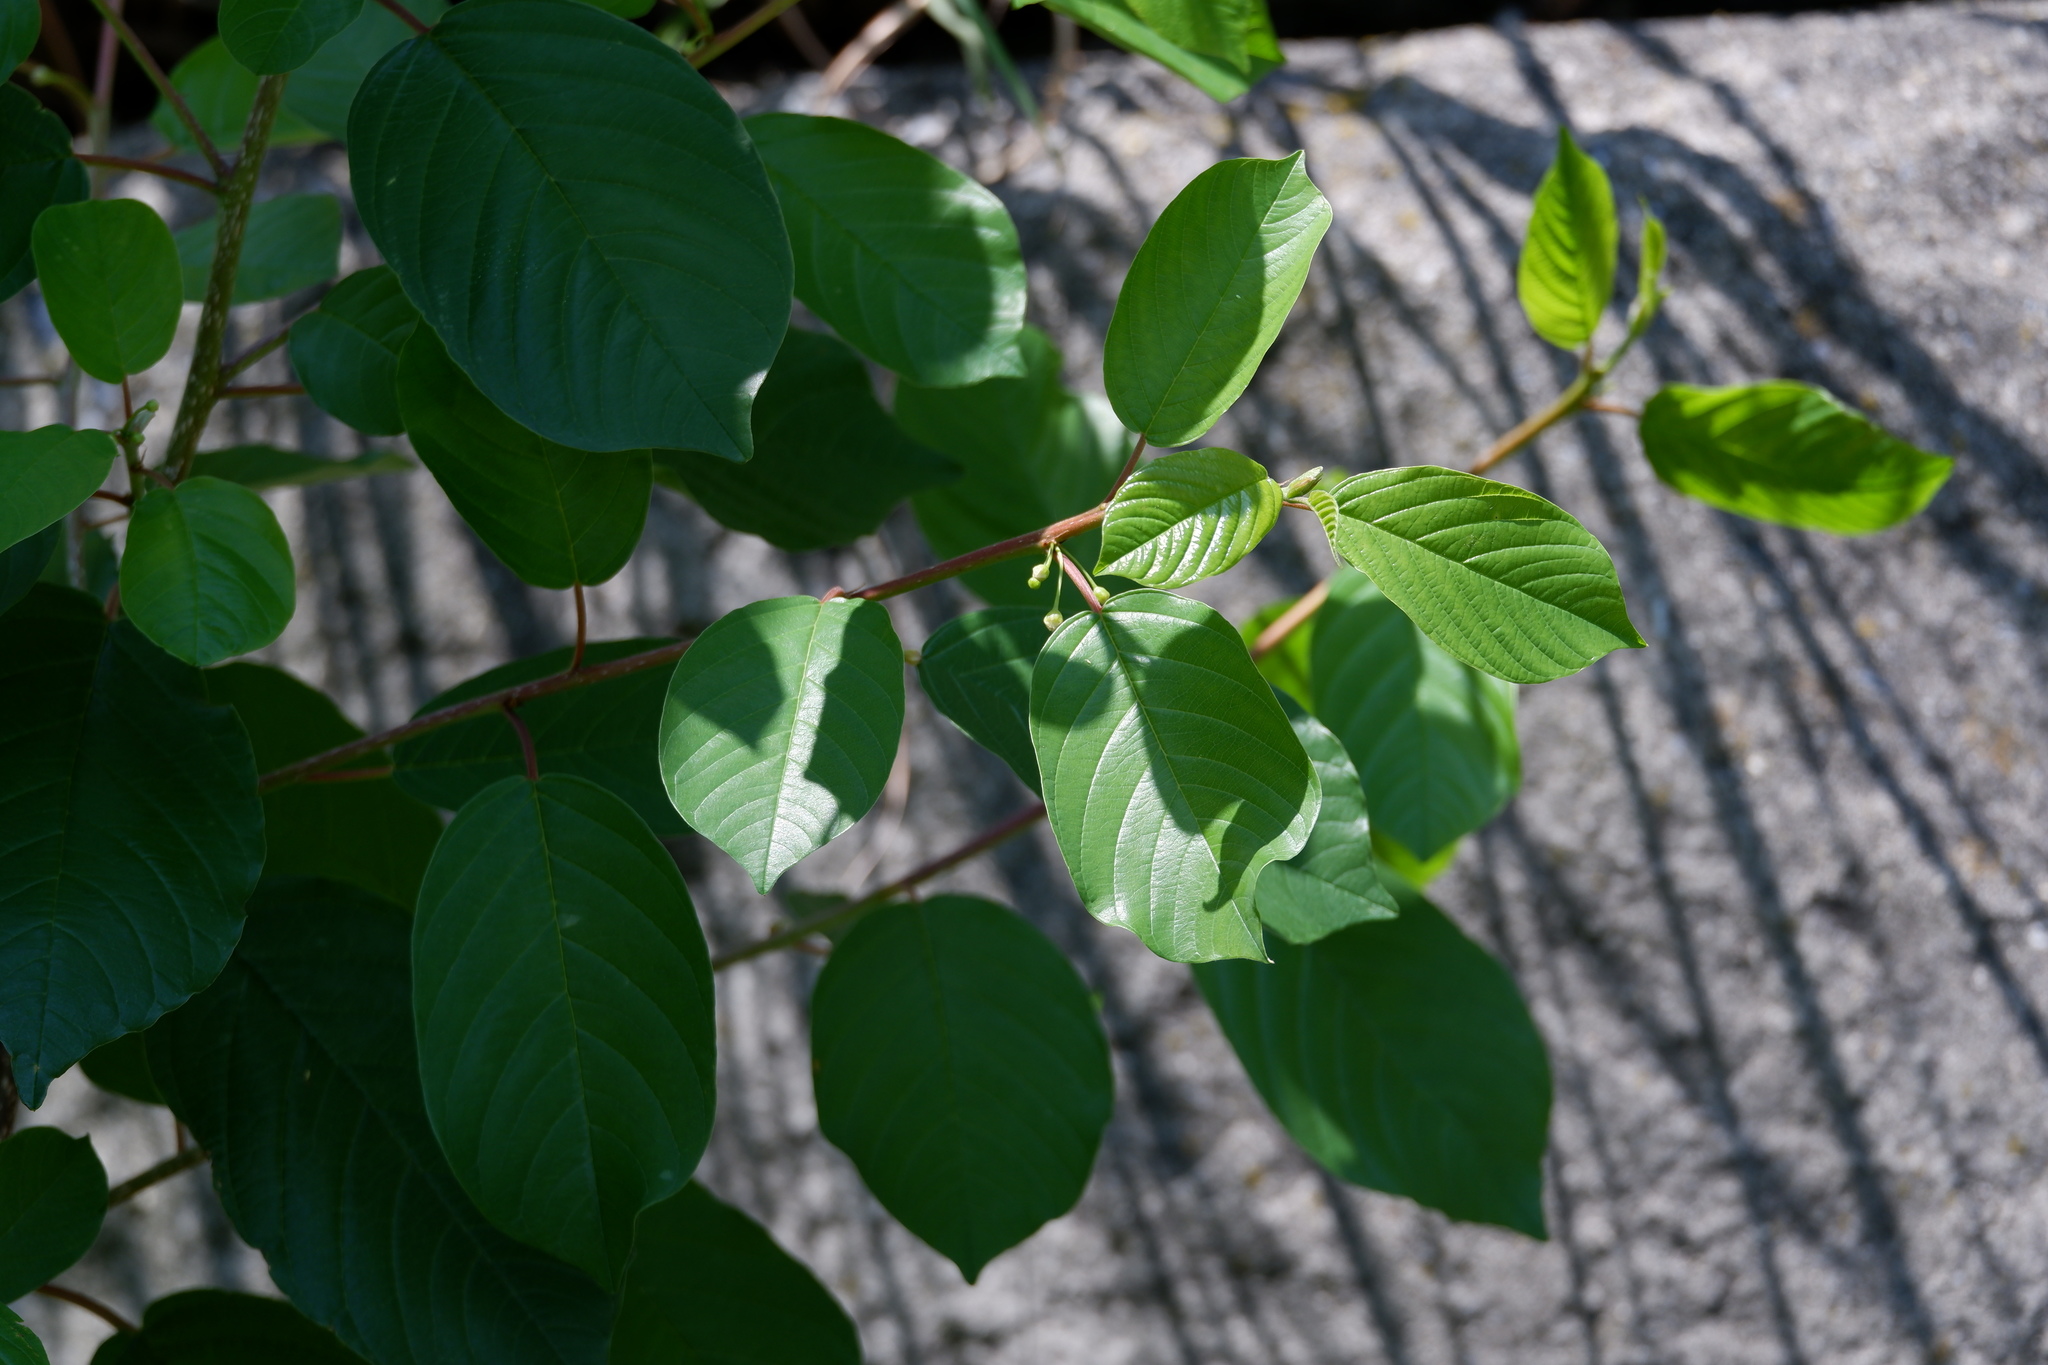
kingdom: Plantae
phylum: Tracheophyta
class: Magnoliopsida
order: Rosales
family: Rhamnaceae
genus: Frangula
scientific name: Frangula alnus
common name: Alder buckthorn
